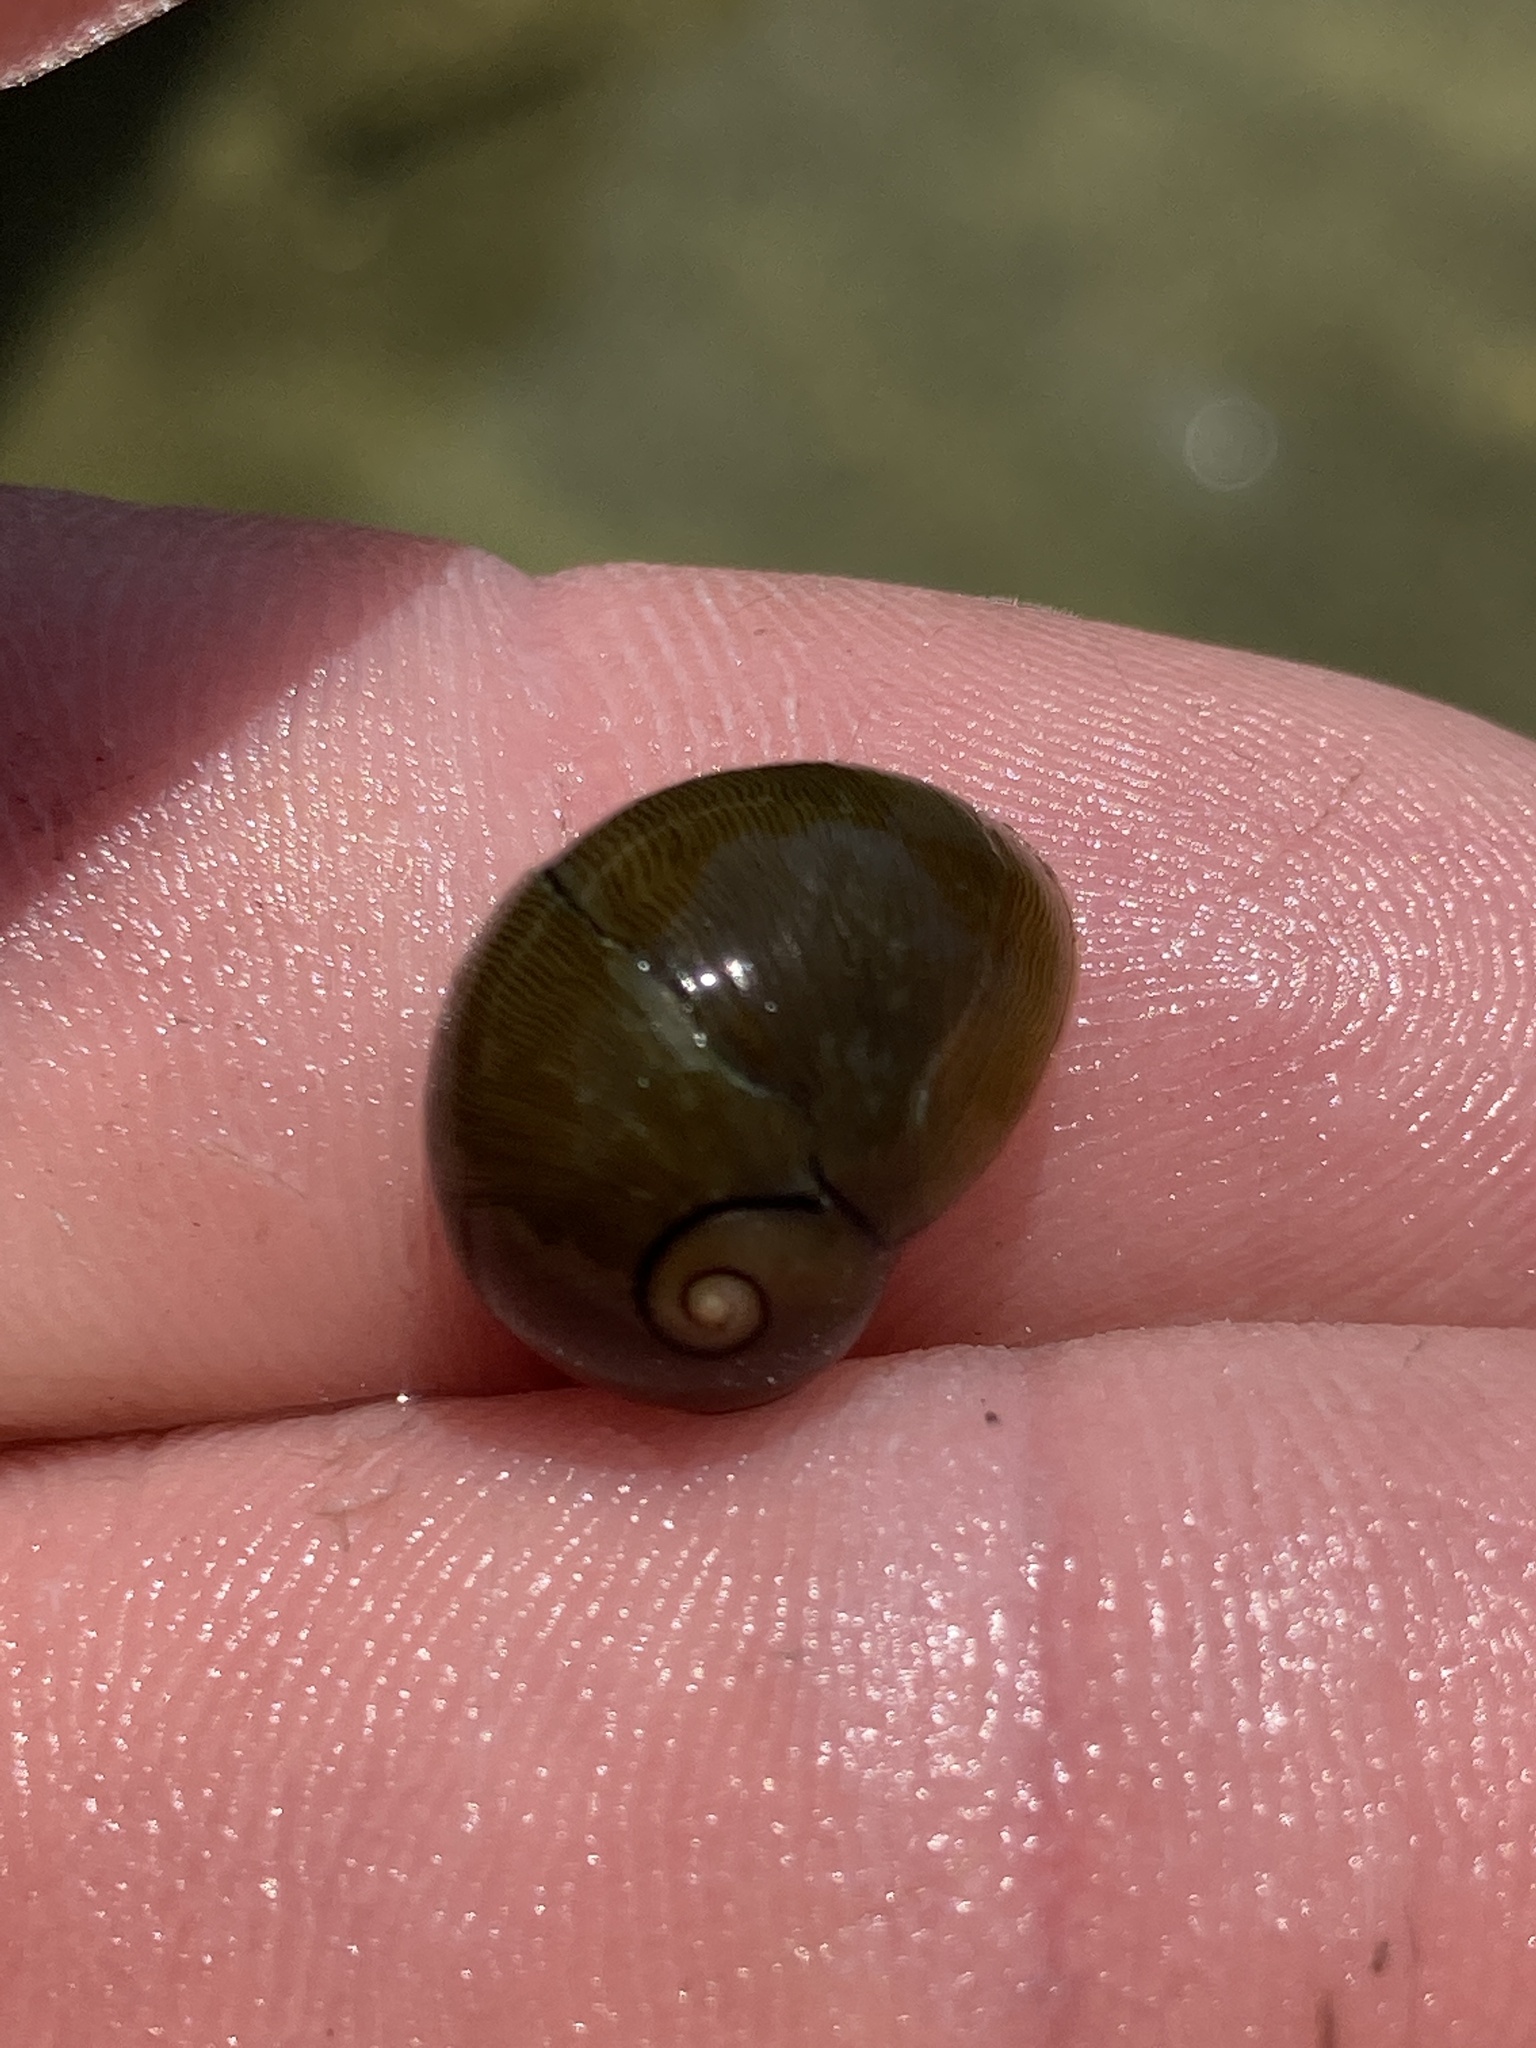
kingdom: Animalia
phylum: Mollusca
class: Gastropoda
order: Cycloneritida
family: Neritidae
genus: Vitta
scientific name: Vitta usnea
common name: Olive nerite
